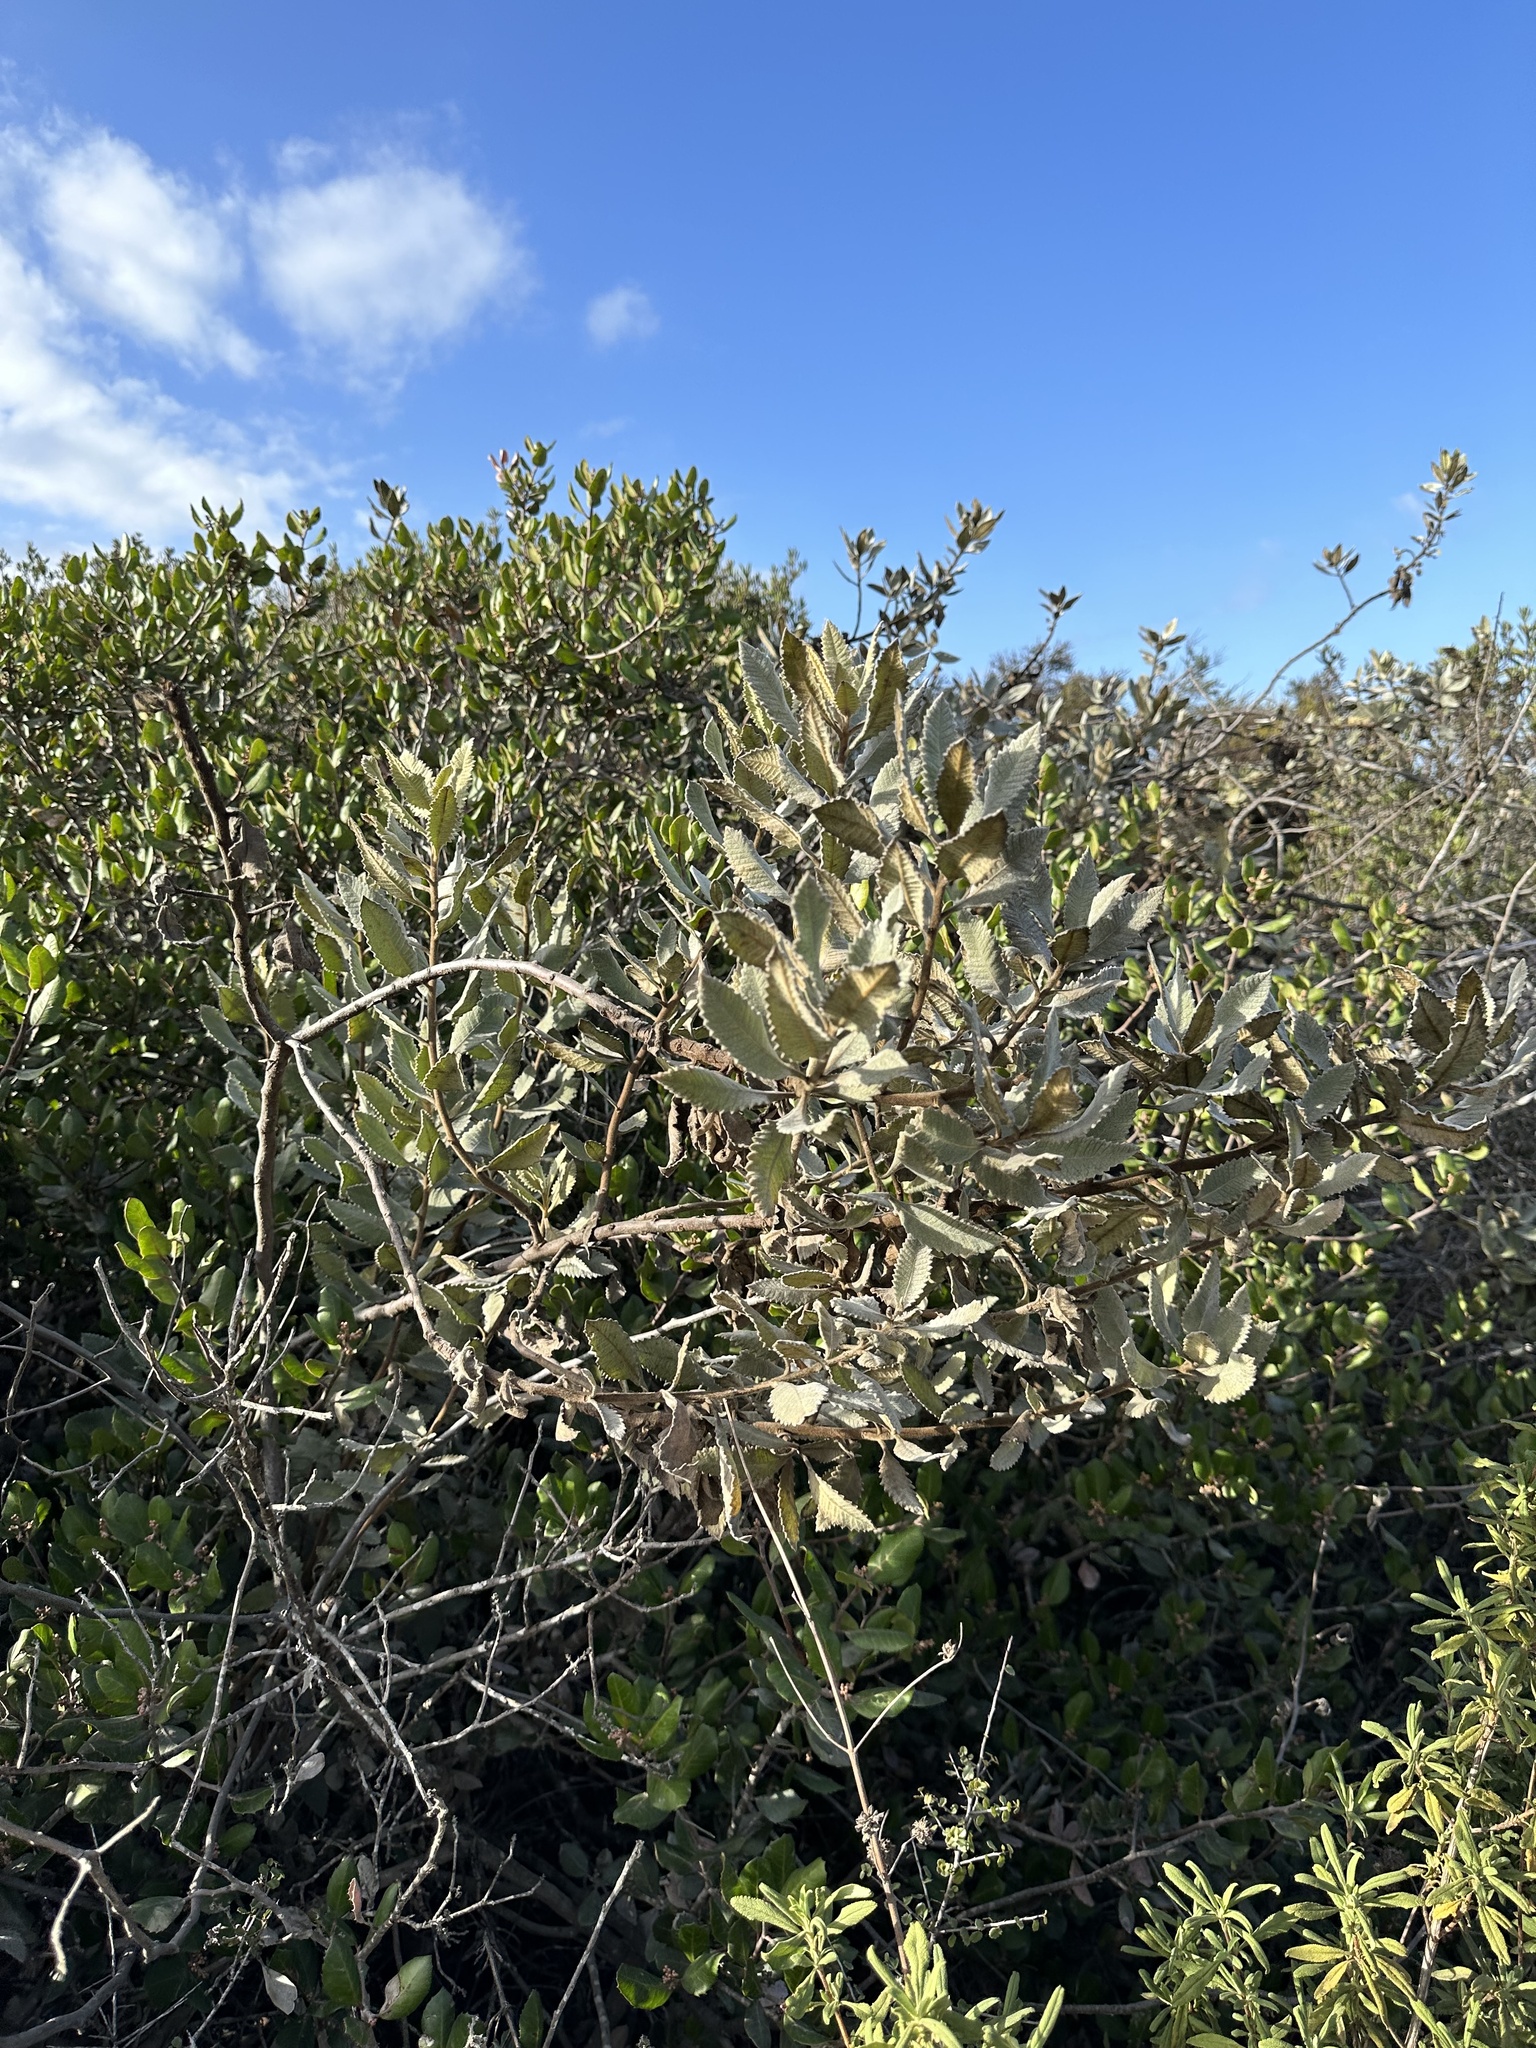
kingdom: Plantae
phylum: Tracheophyta
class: Magnoliopsida
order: Boraginales
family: Namaceae
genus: Eriodictyon
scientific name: Eriodictyon crassifolium
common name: Thick-leaf yerba-santa
